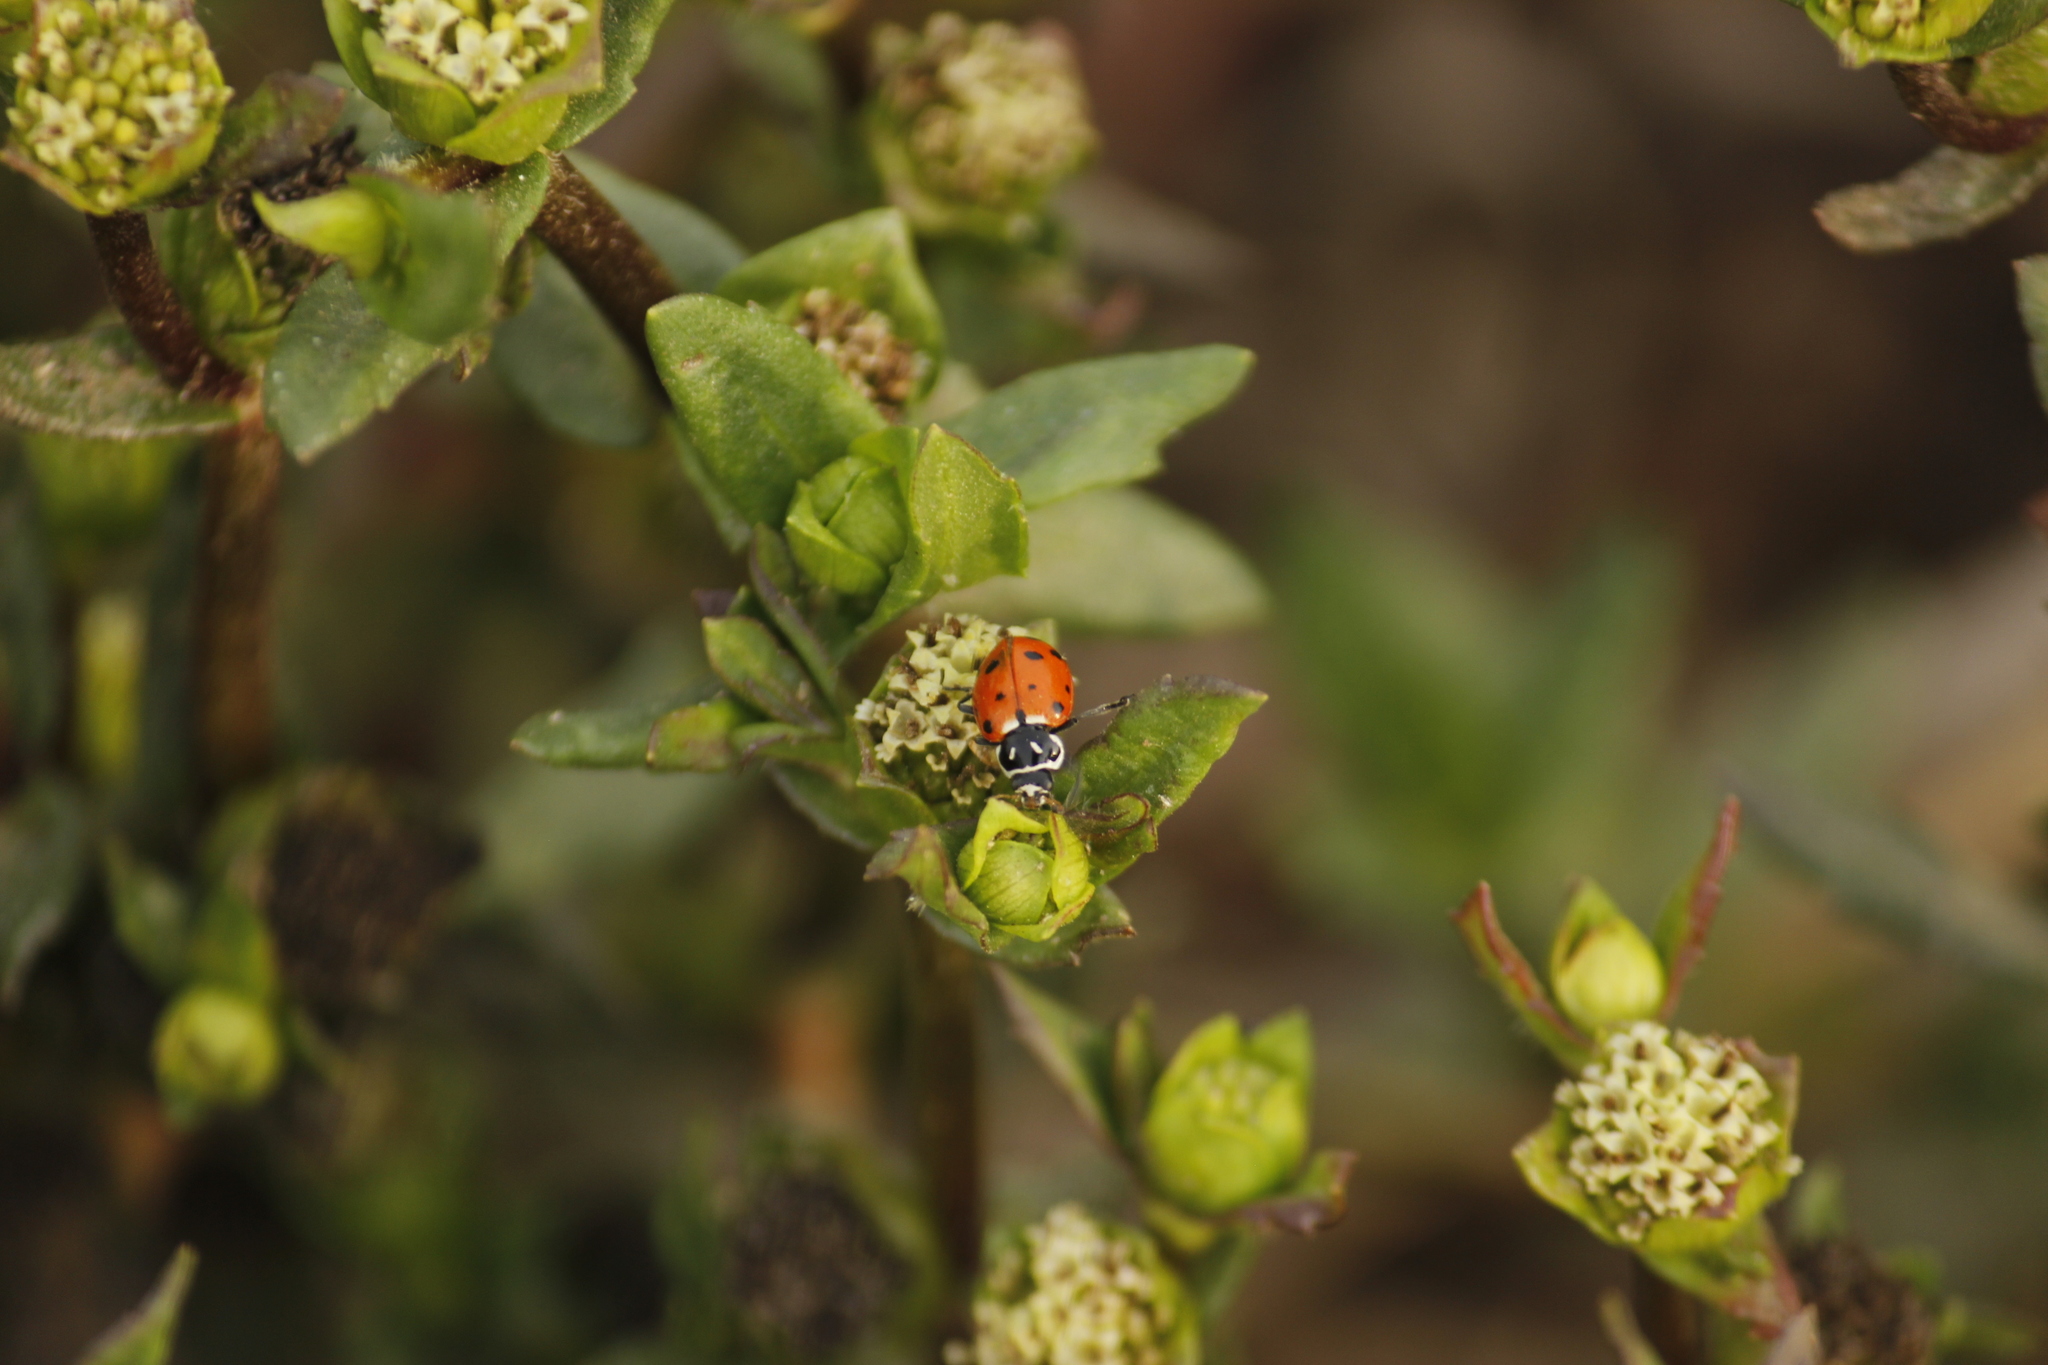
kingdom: Animalia
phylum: Arthropoda
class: Insecta
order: Coleoptera
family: Coccinellidae
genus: Hippodamia
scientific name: Hippodamia convergens
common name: Convergent lady beetle
